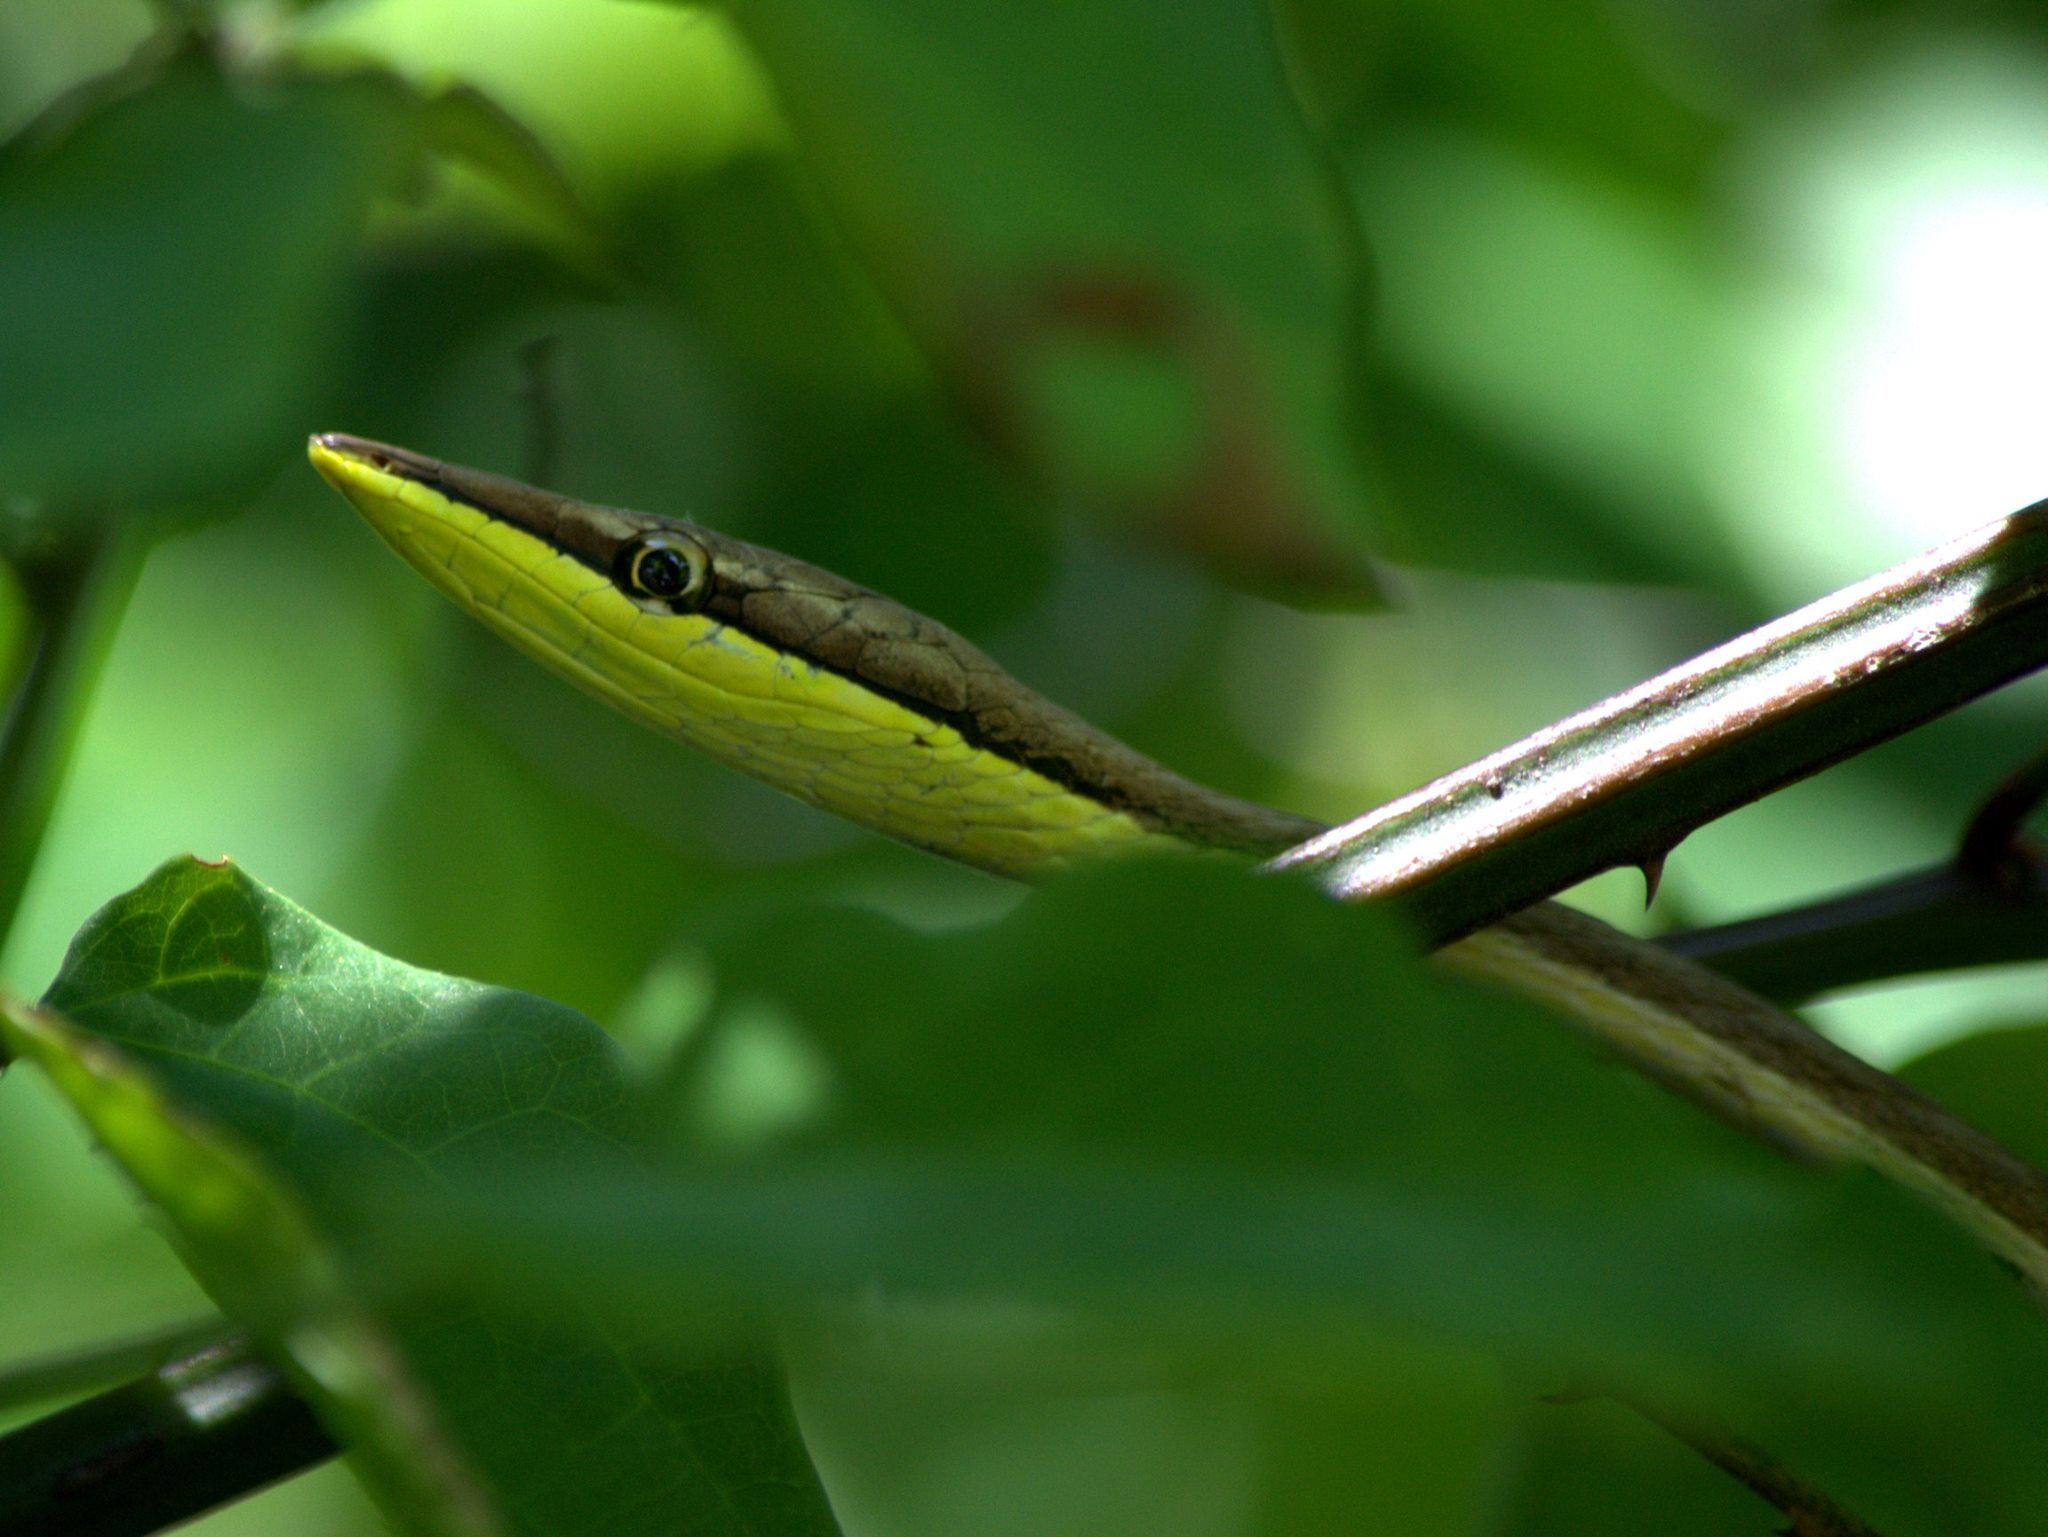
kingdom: Animalia
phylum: Chordata
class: Squamata
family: Colubridae
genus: Oxybelis
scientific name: Oxybelis microphthalmus
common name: Thrornscrub vine snake
